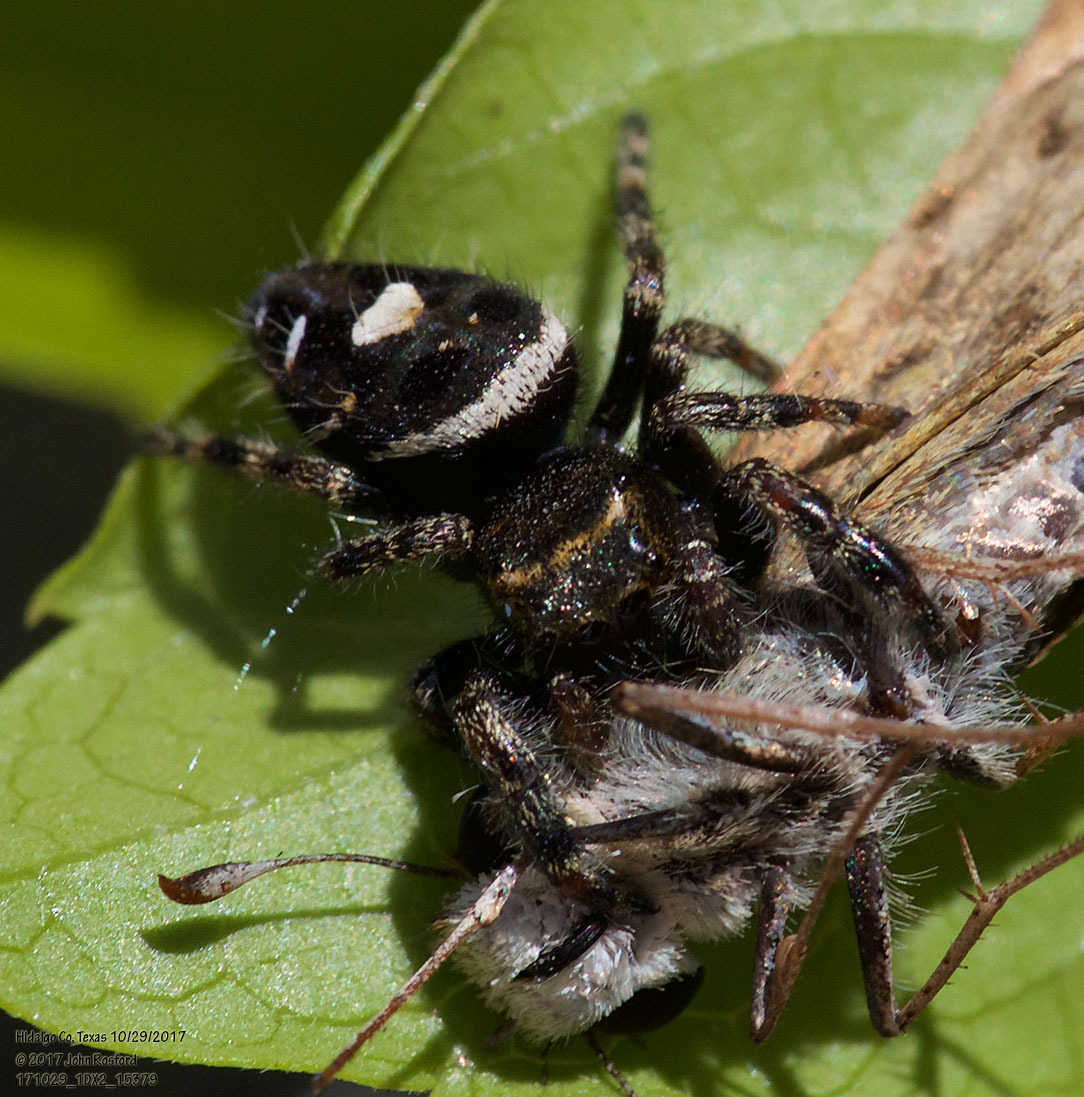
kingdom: Animalia
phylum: Arthropoda
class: Arachnida
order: Araneae
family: Salticidae
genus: Phidippus
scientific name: Phidippus audax
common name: Bold jumper
